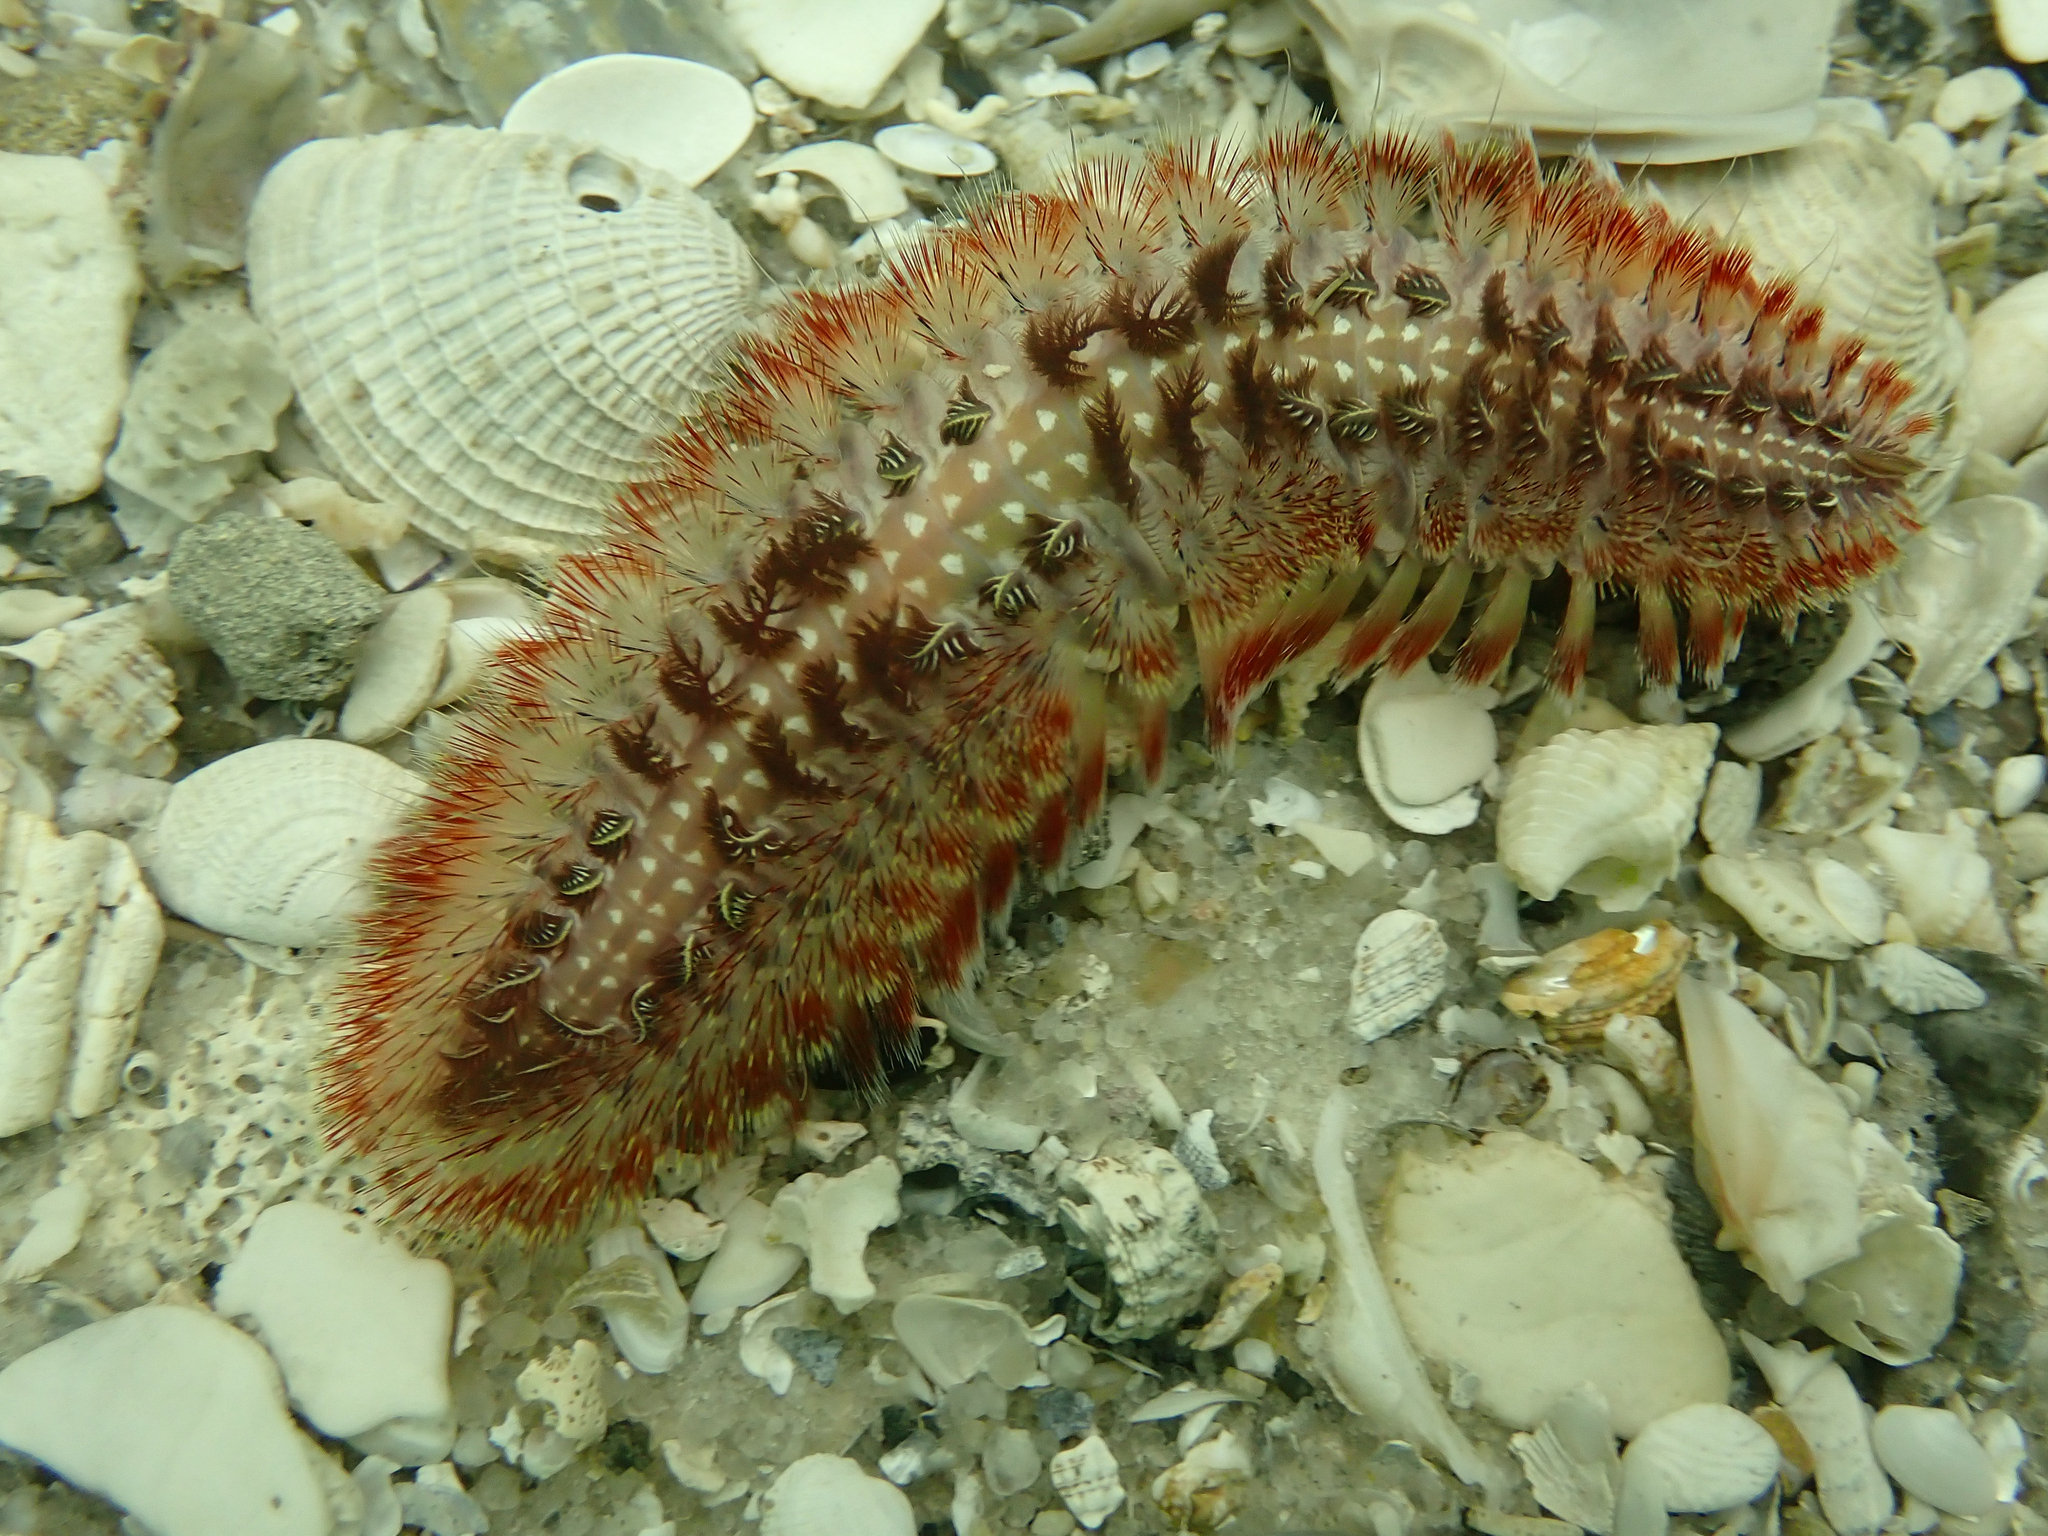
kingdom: Animalia
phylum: Annelida
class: Polychaeta
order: Amphinomida
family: Amphinomidae
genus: Chloeia
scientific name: Chloeia euglochis
